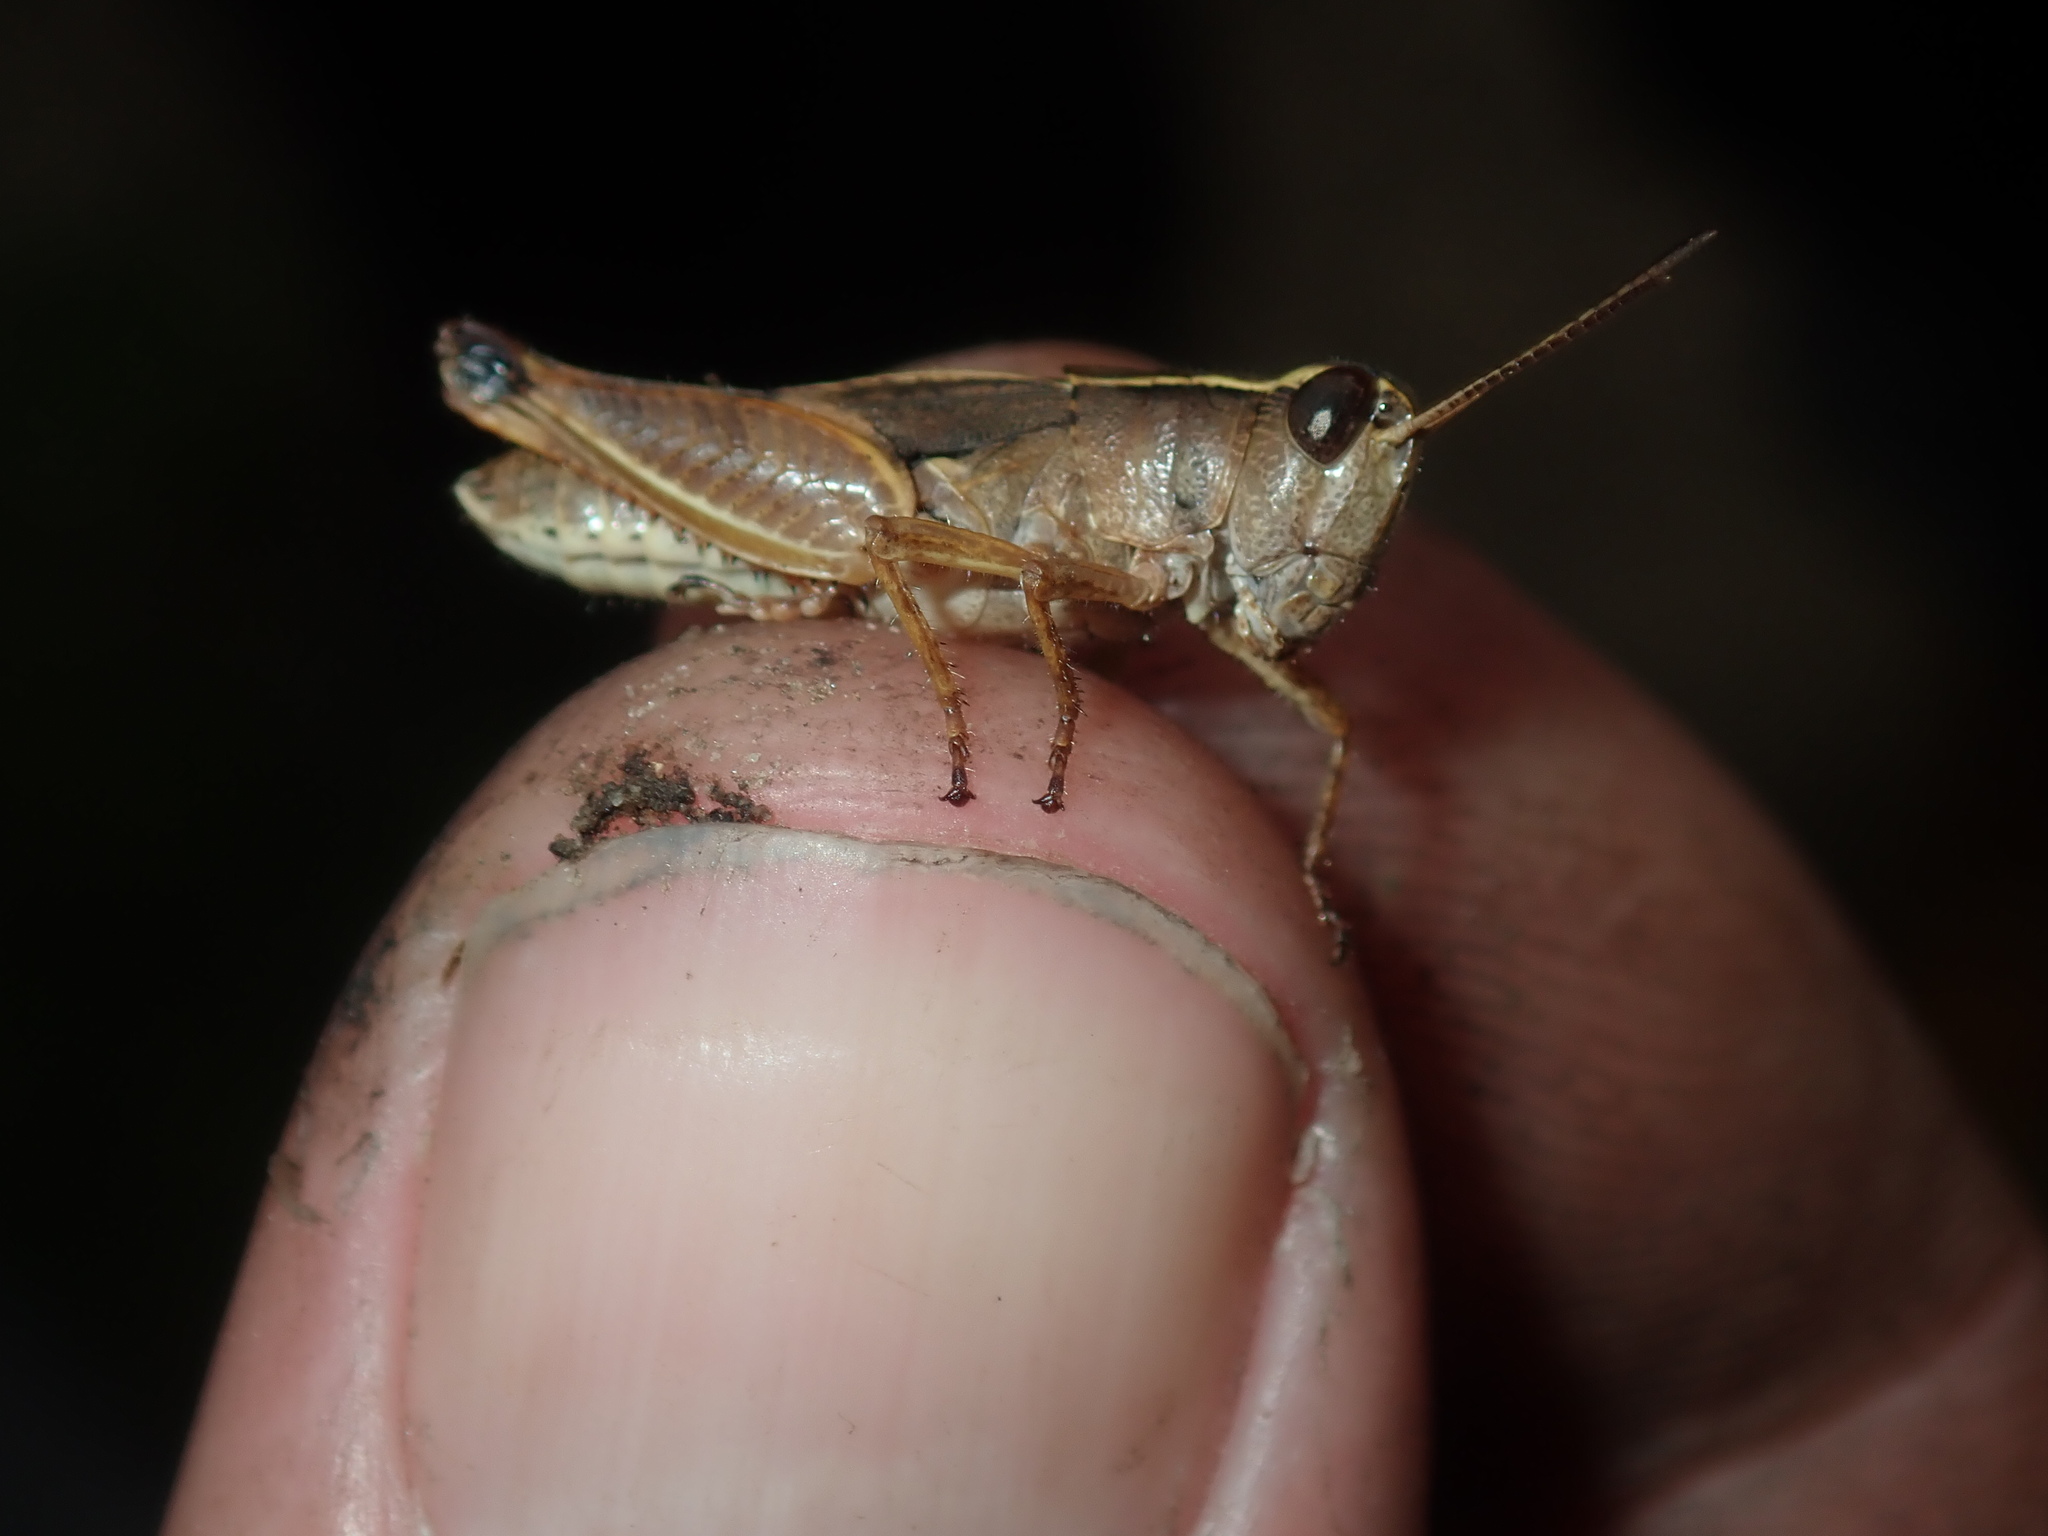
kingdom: Animalia
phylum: Arthropoda
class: Insecta
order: Orthoptera
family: Acrididae
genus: Phaulacridium
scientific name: Phaulacridium vittatum
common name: Wingless grasshopper
